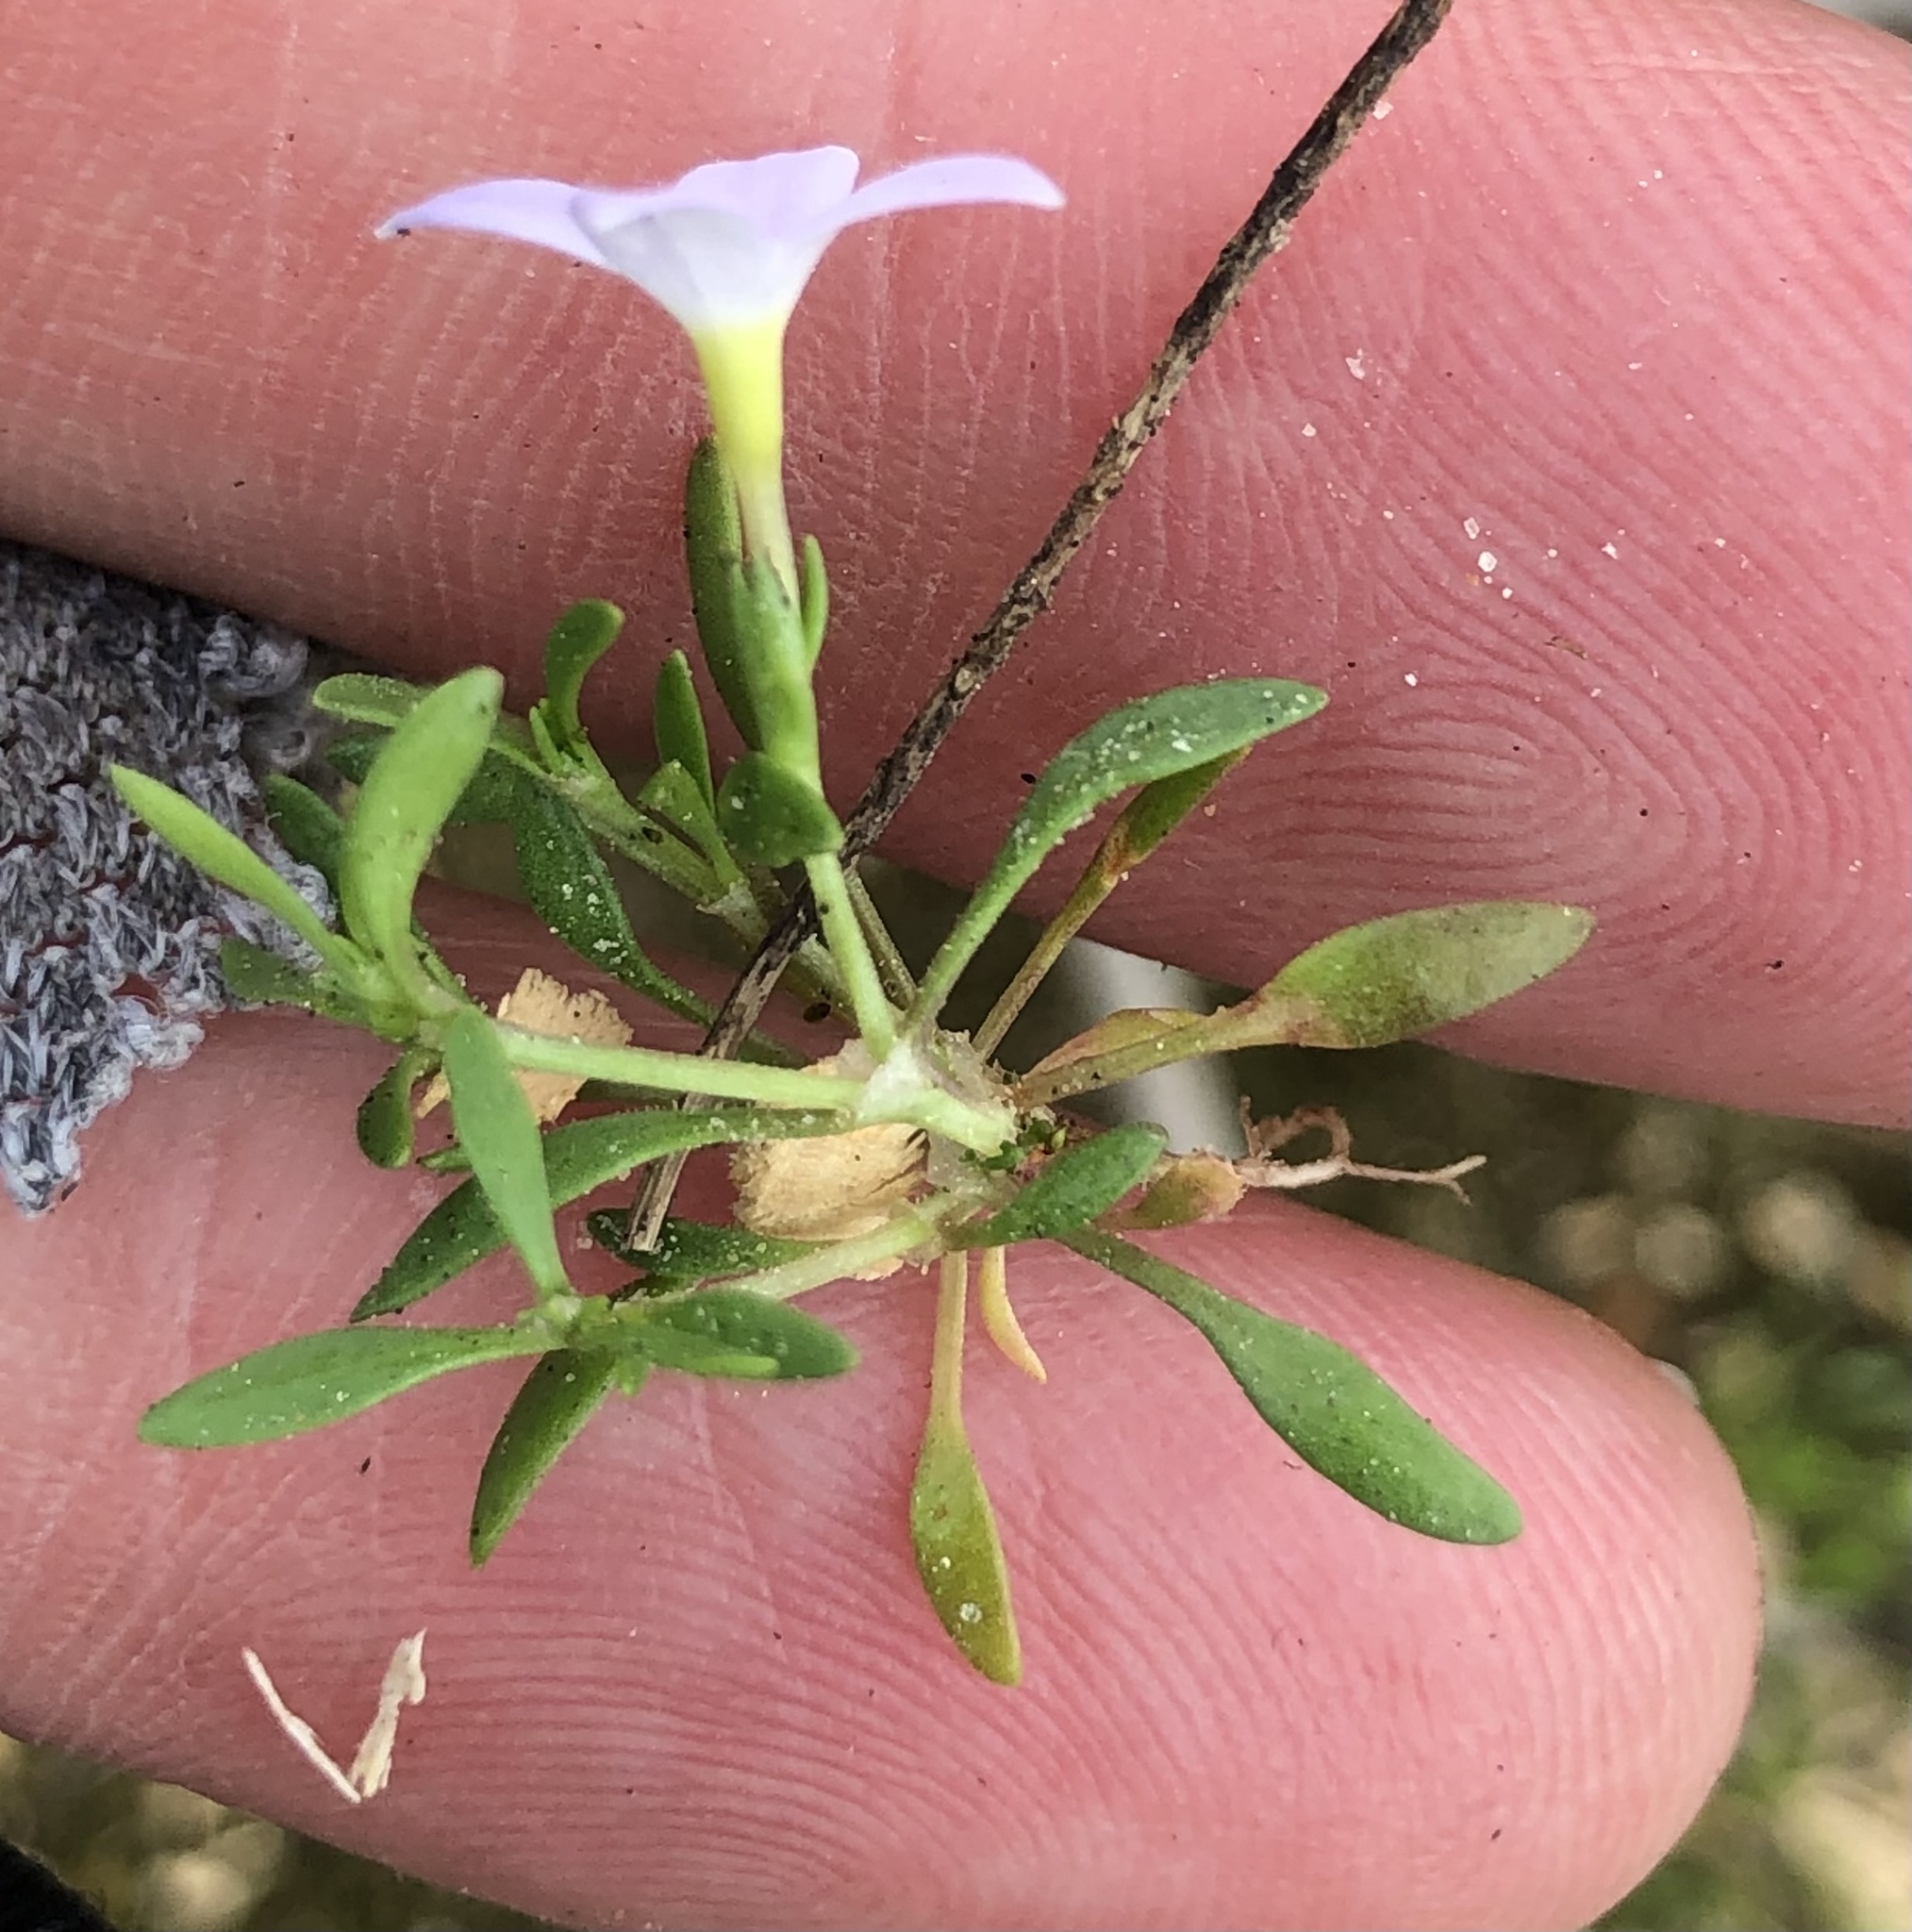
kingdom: Plantae
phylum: Tracheophyta
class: Magnoliopsida
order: Gentianales
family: Rubiaceae
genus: Houstonia
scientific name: Houstonia rosea
